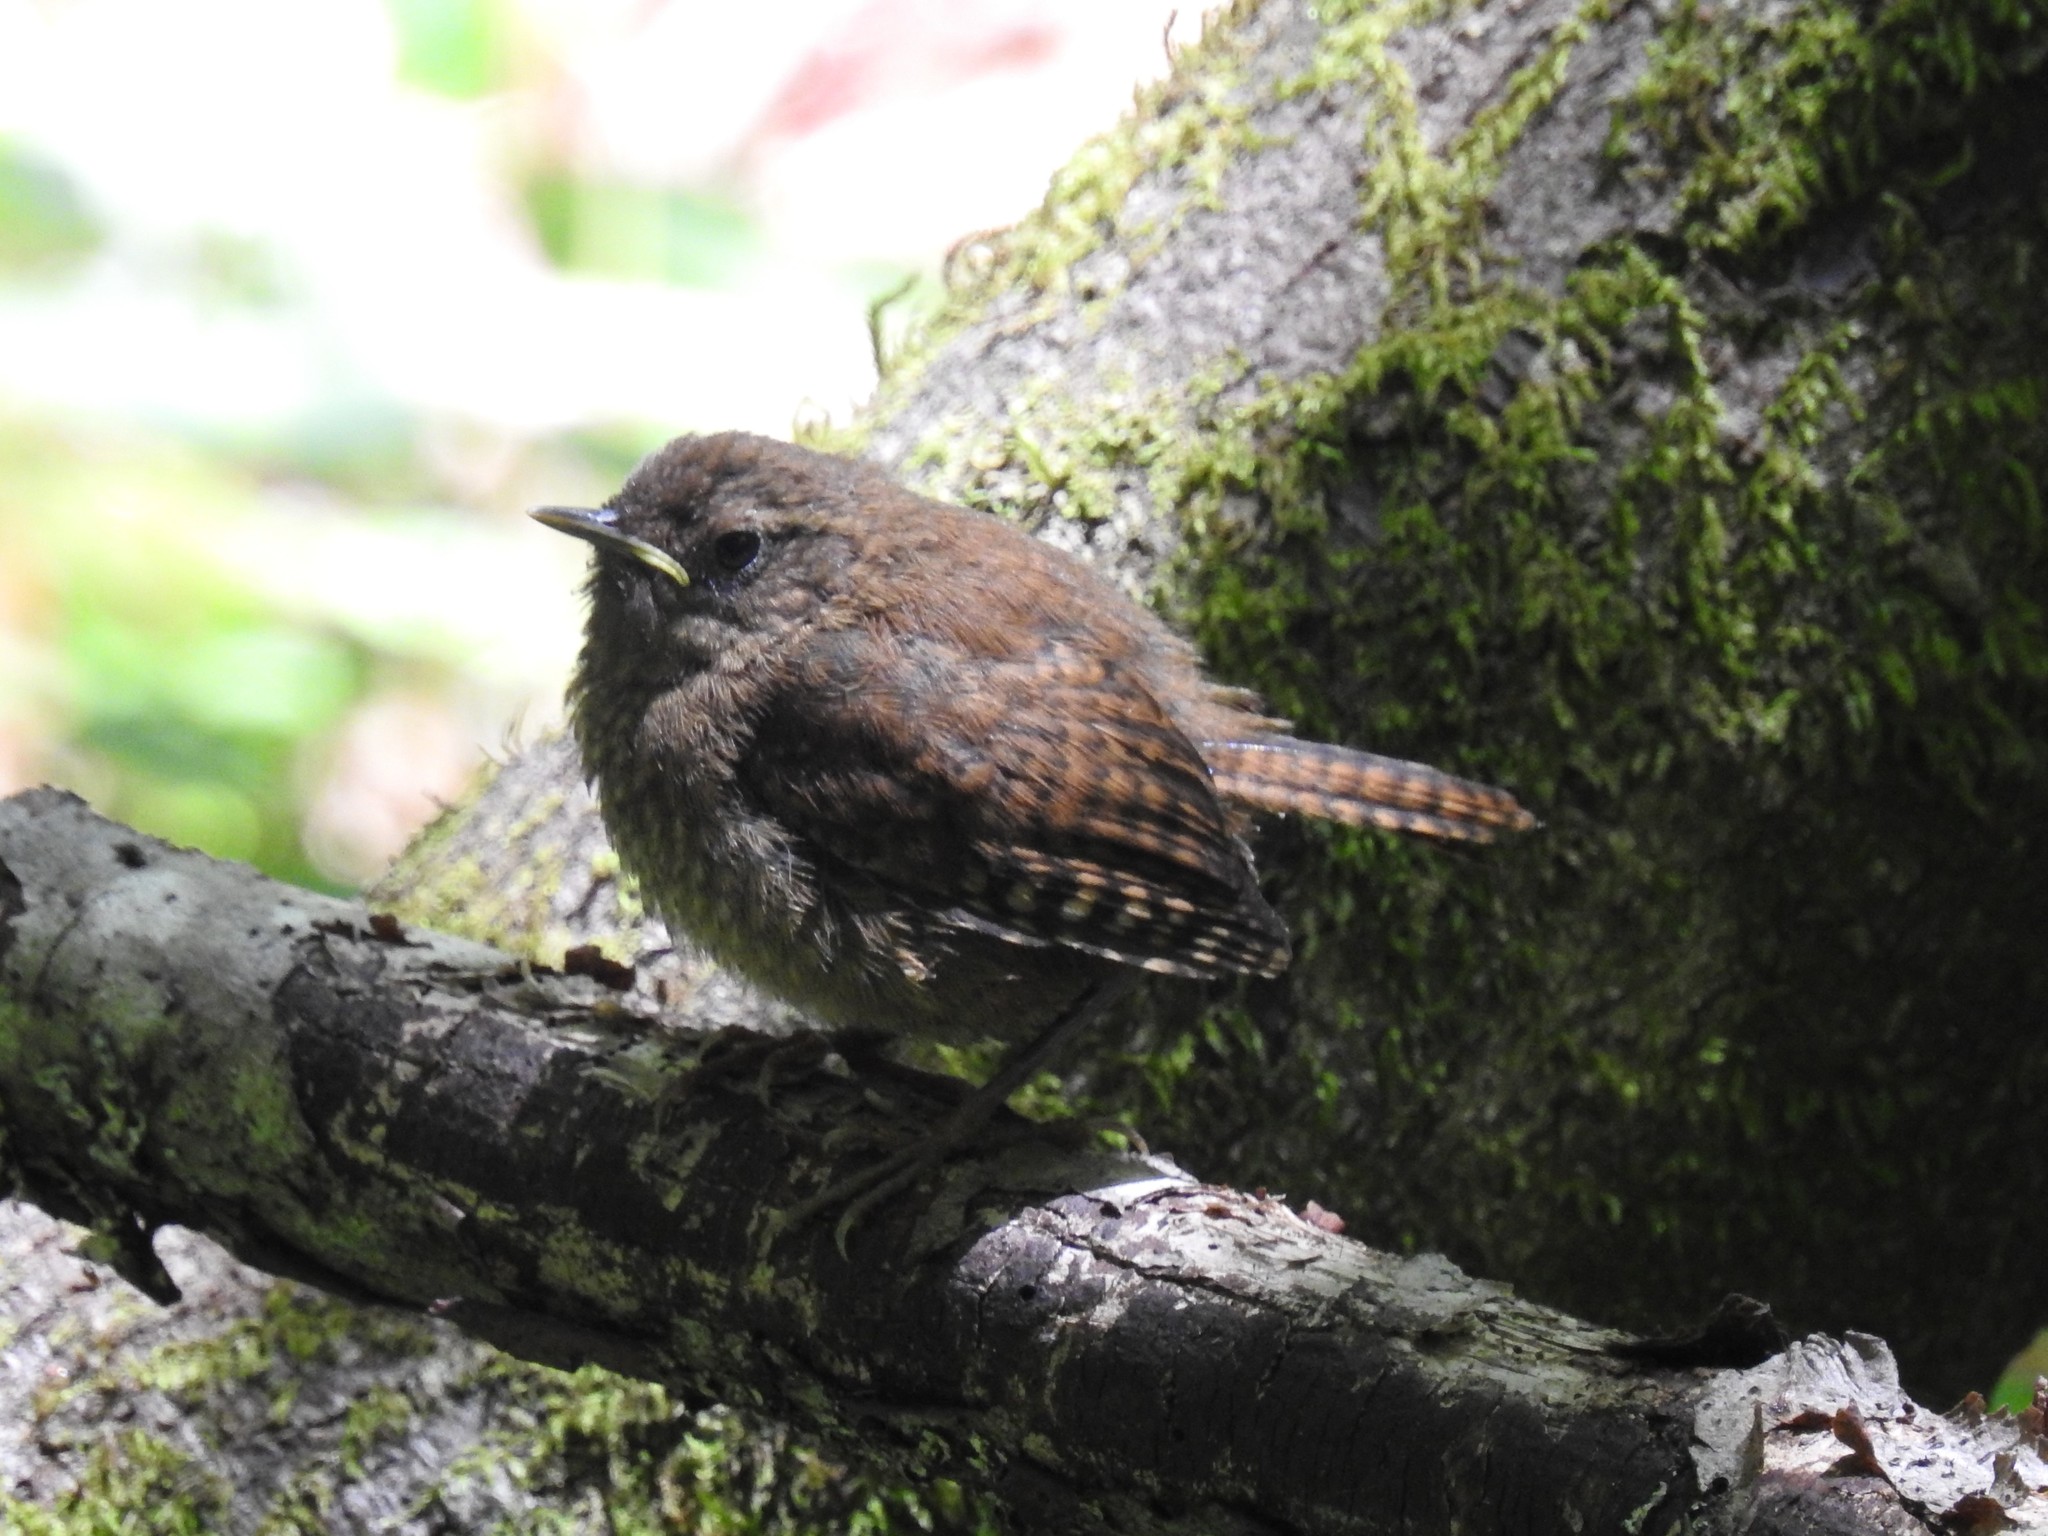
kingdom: Animalia
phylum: Chordata
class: Aves
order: Passeriformes
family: Troglodytidae
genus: Troglodytes
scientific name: Troglodytes pacificus
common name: Pacific wren
